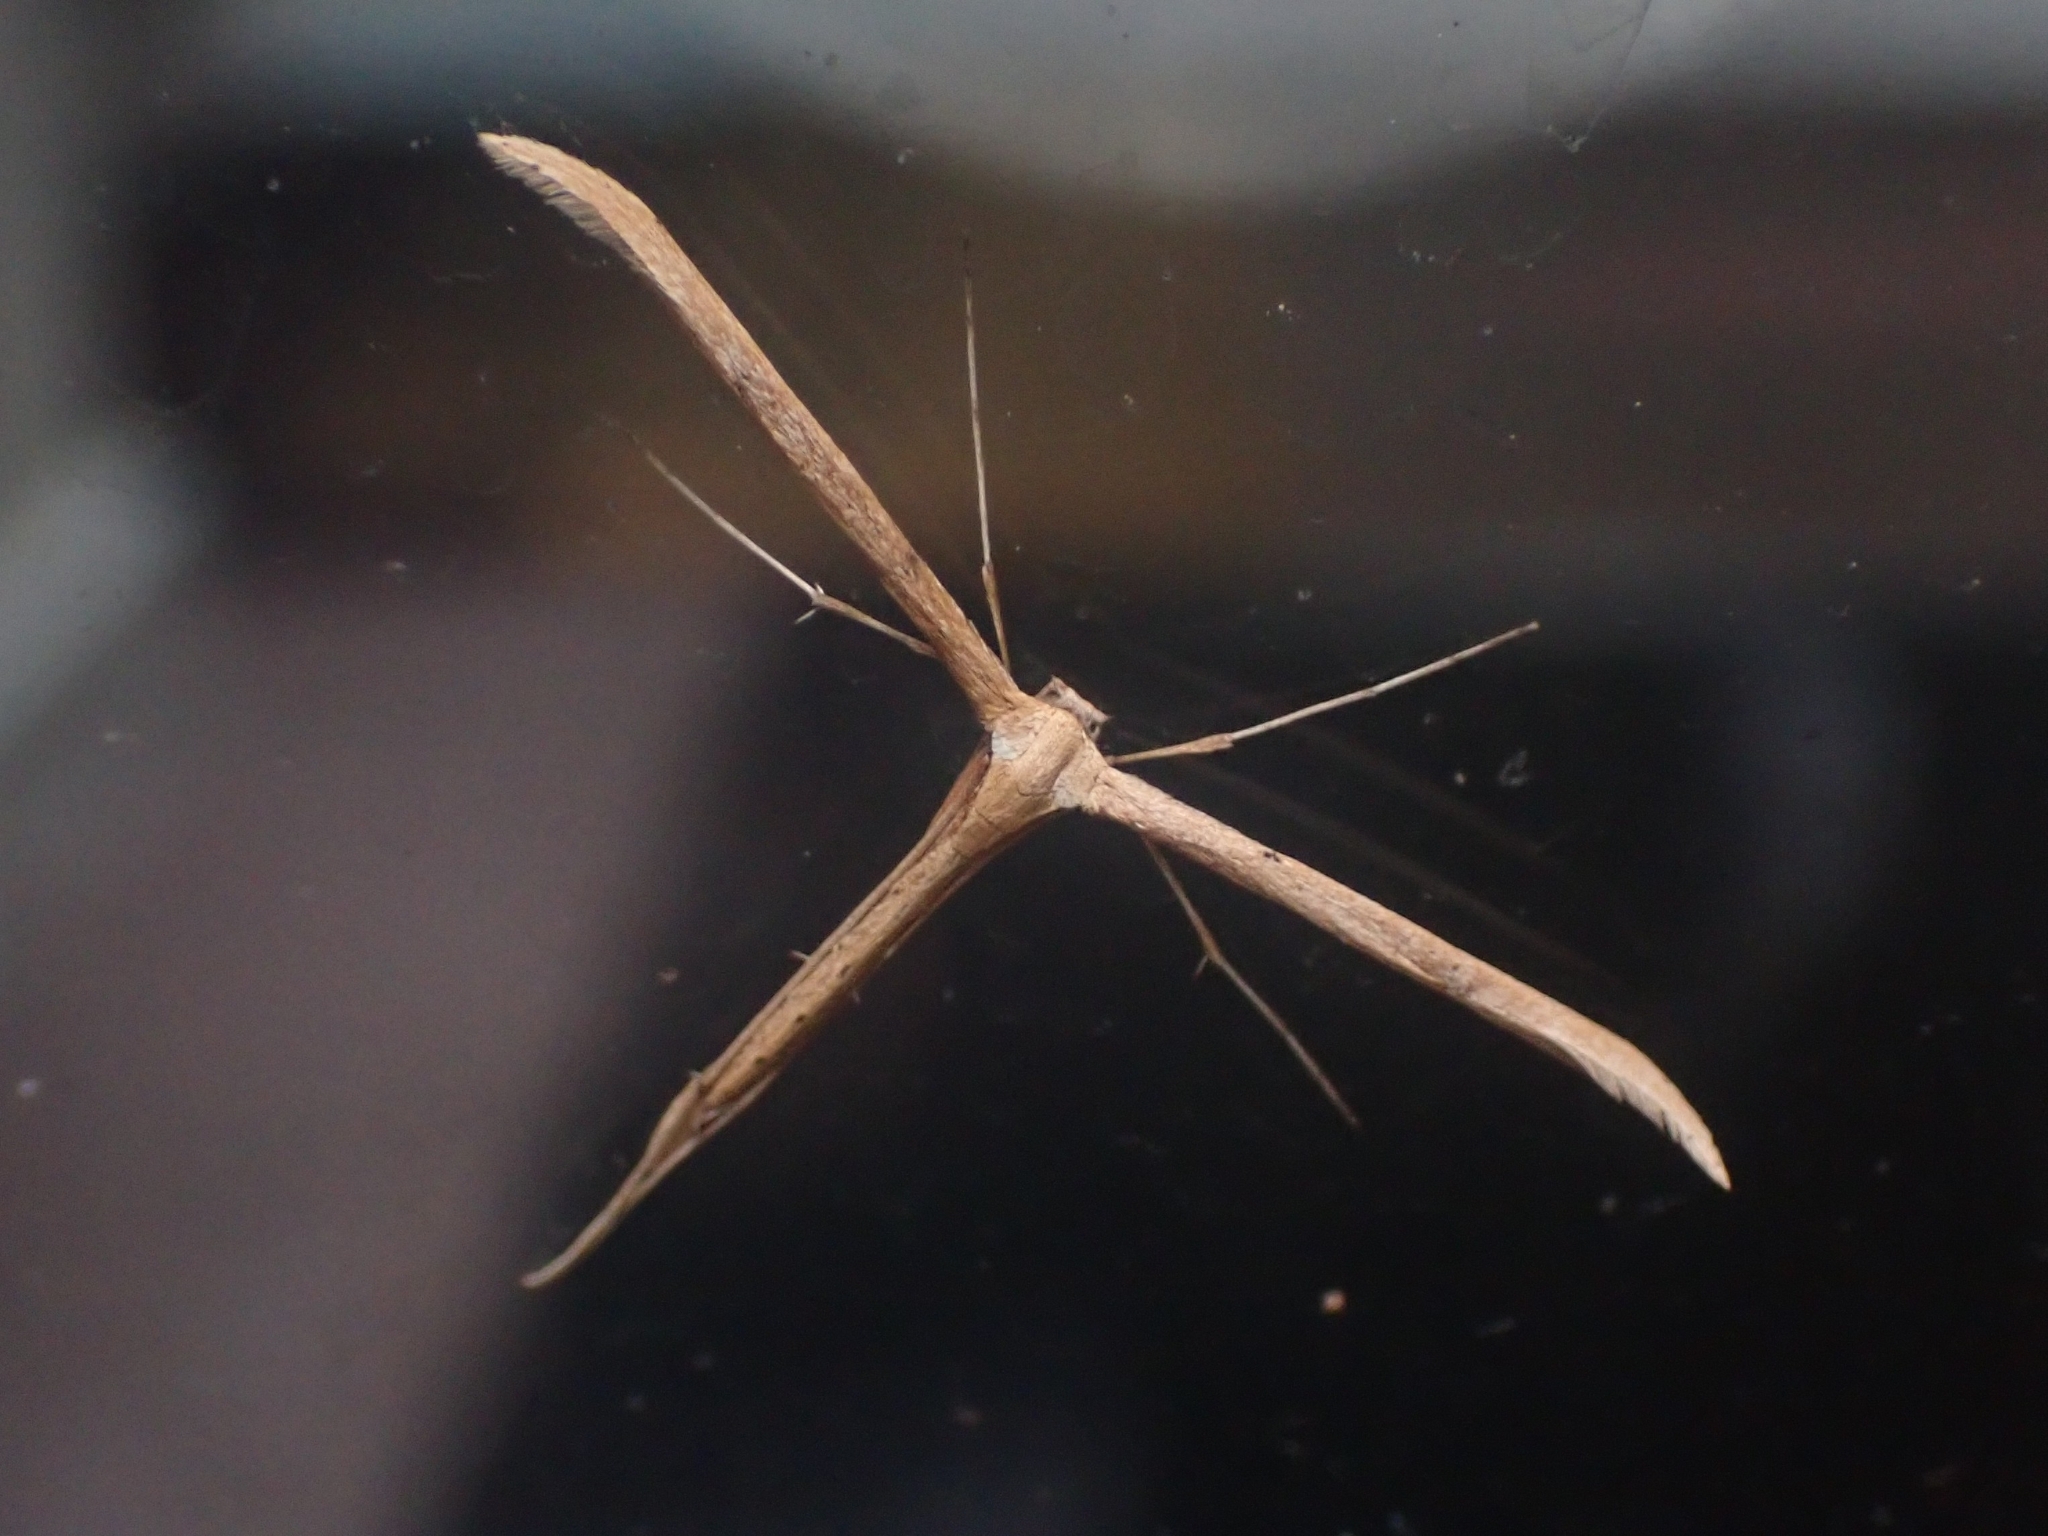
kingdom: Animalia
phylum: Arthropoda
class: Insecta
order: Lepidoptera
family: Pterophoridae
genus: Emmelina
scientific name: Emmelina monodactyla
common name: Common plume
